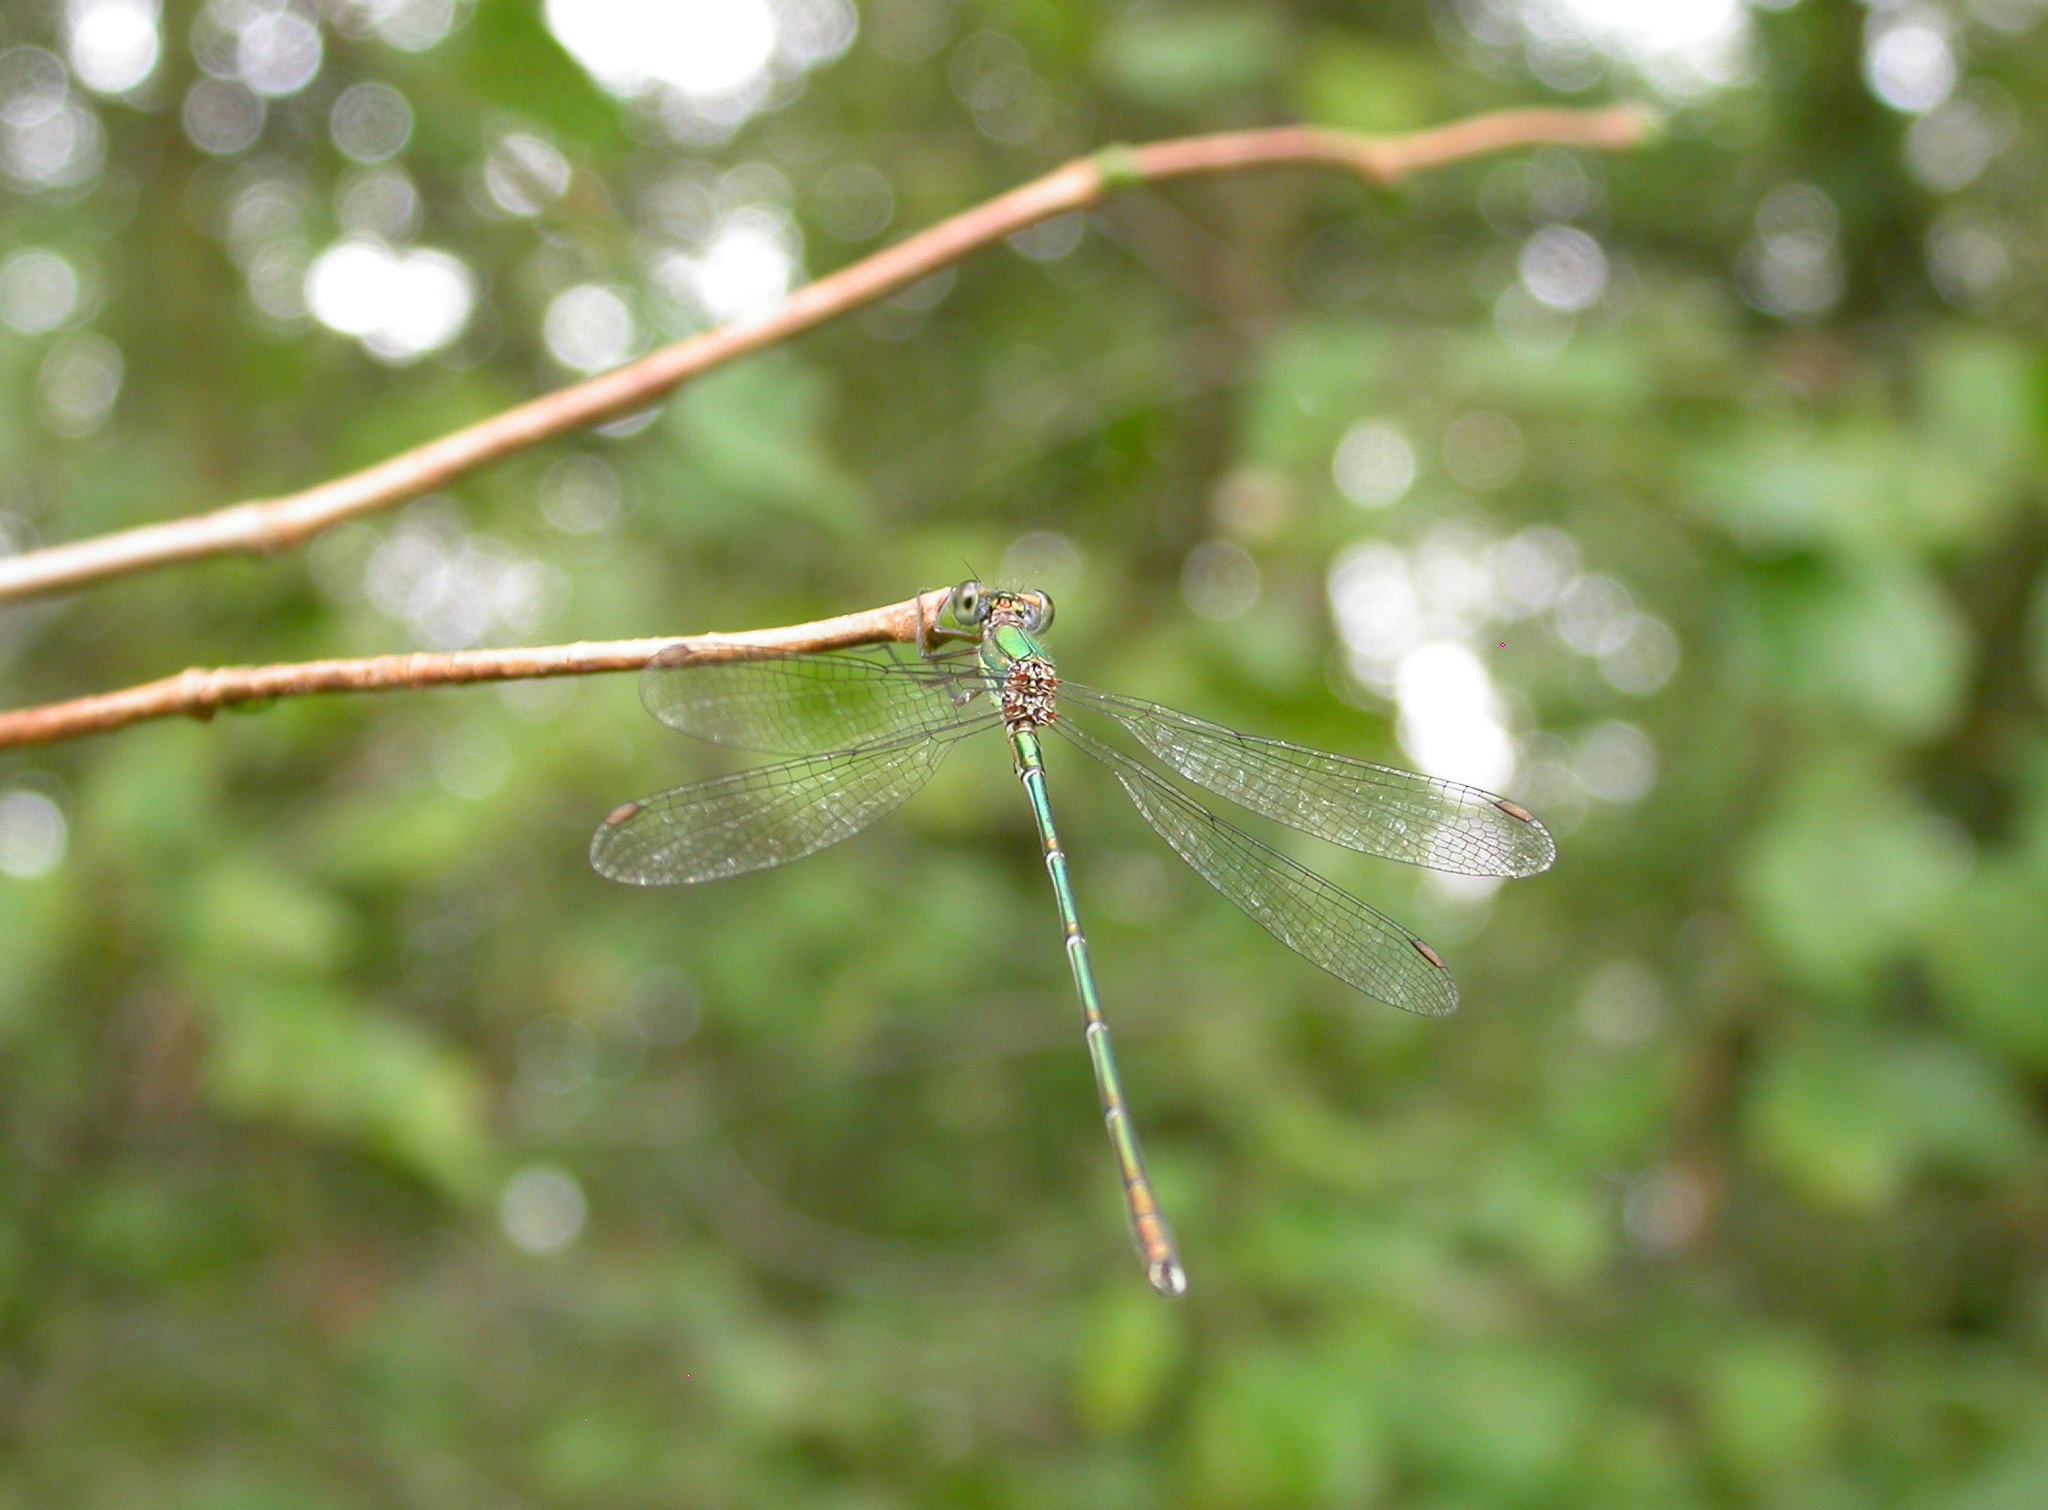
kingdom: Animalia
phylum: Arthropoda
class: Insecta
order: Odonata
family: Lestidae
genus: Chalcolestes
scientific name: Chalcolestes viridis
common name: Green emerald damselfly
